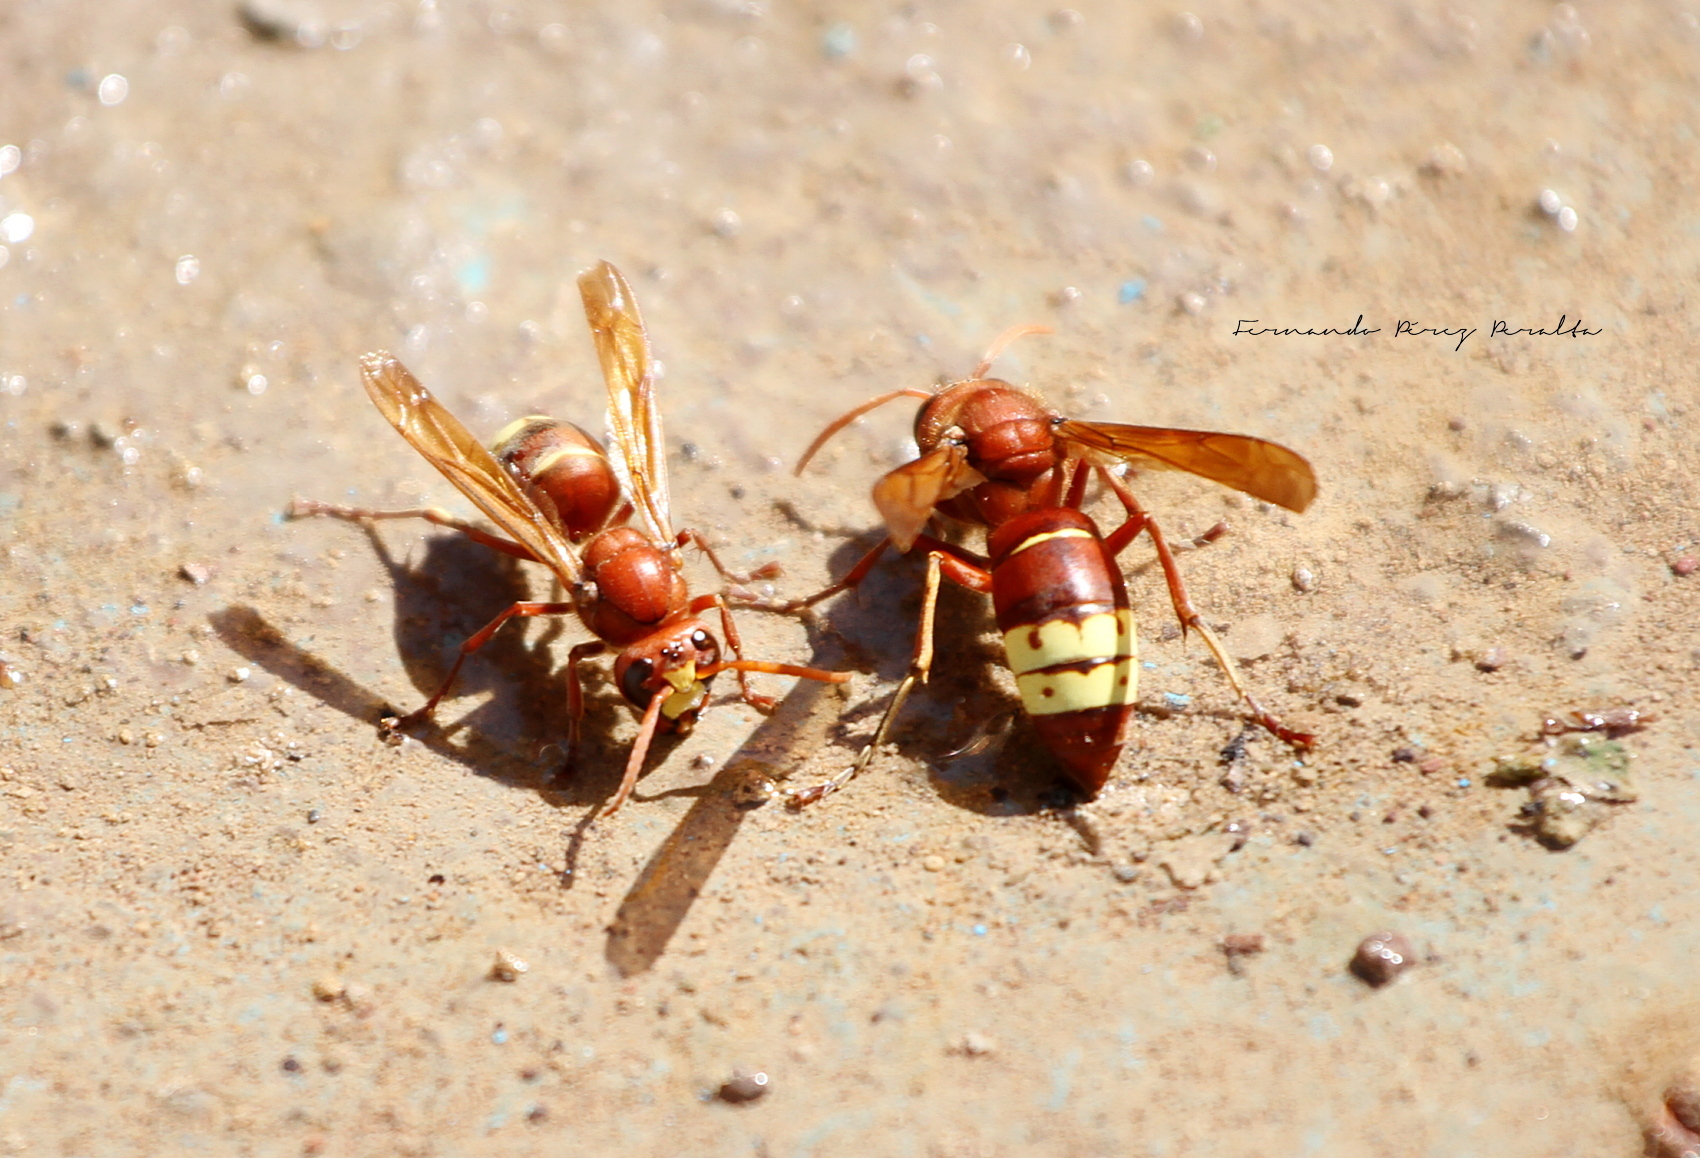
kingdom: Animalia
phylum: Arthropoda
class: Insecta
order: Hymenoptera
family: Vespidae
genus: Vespa
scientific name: Vespa orientalis
